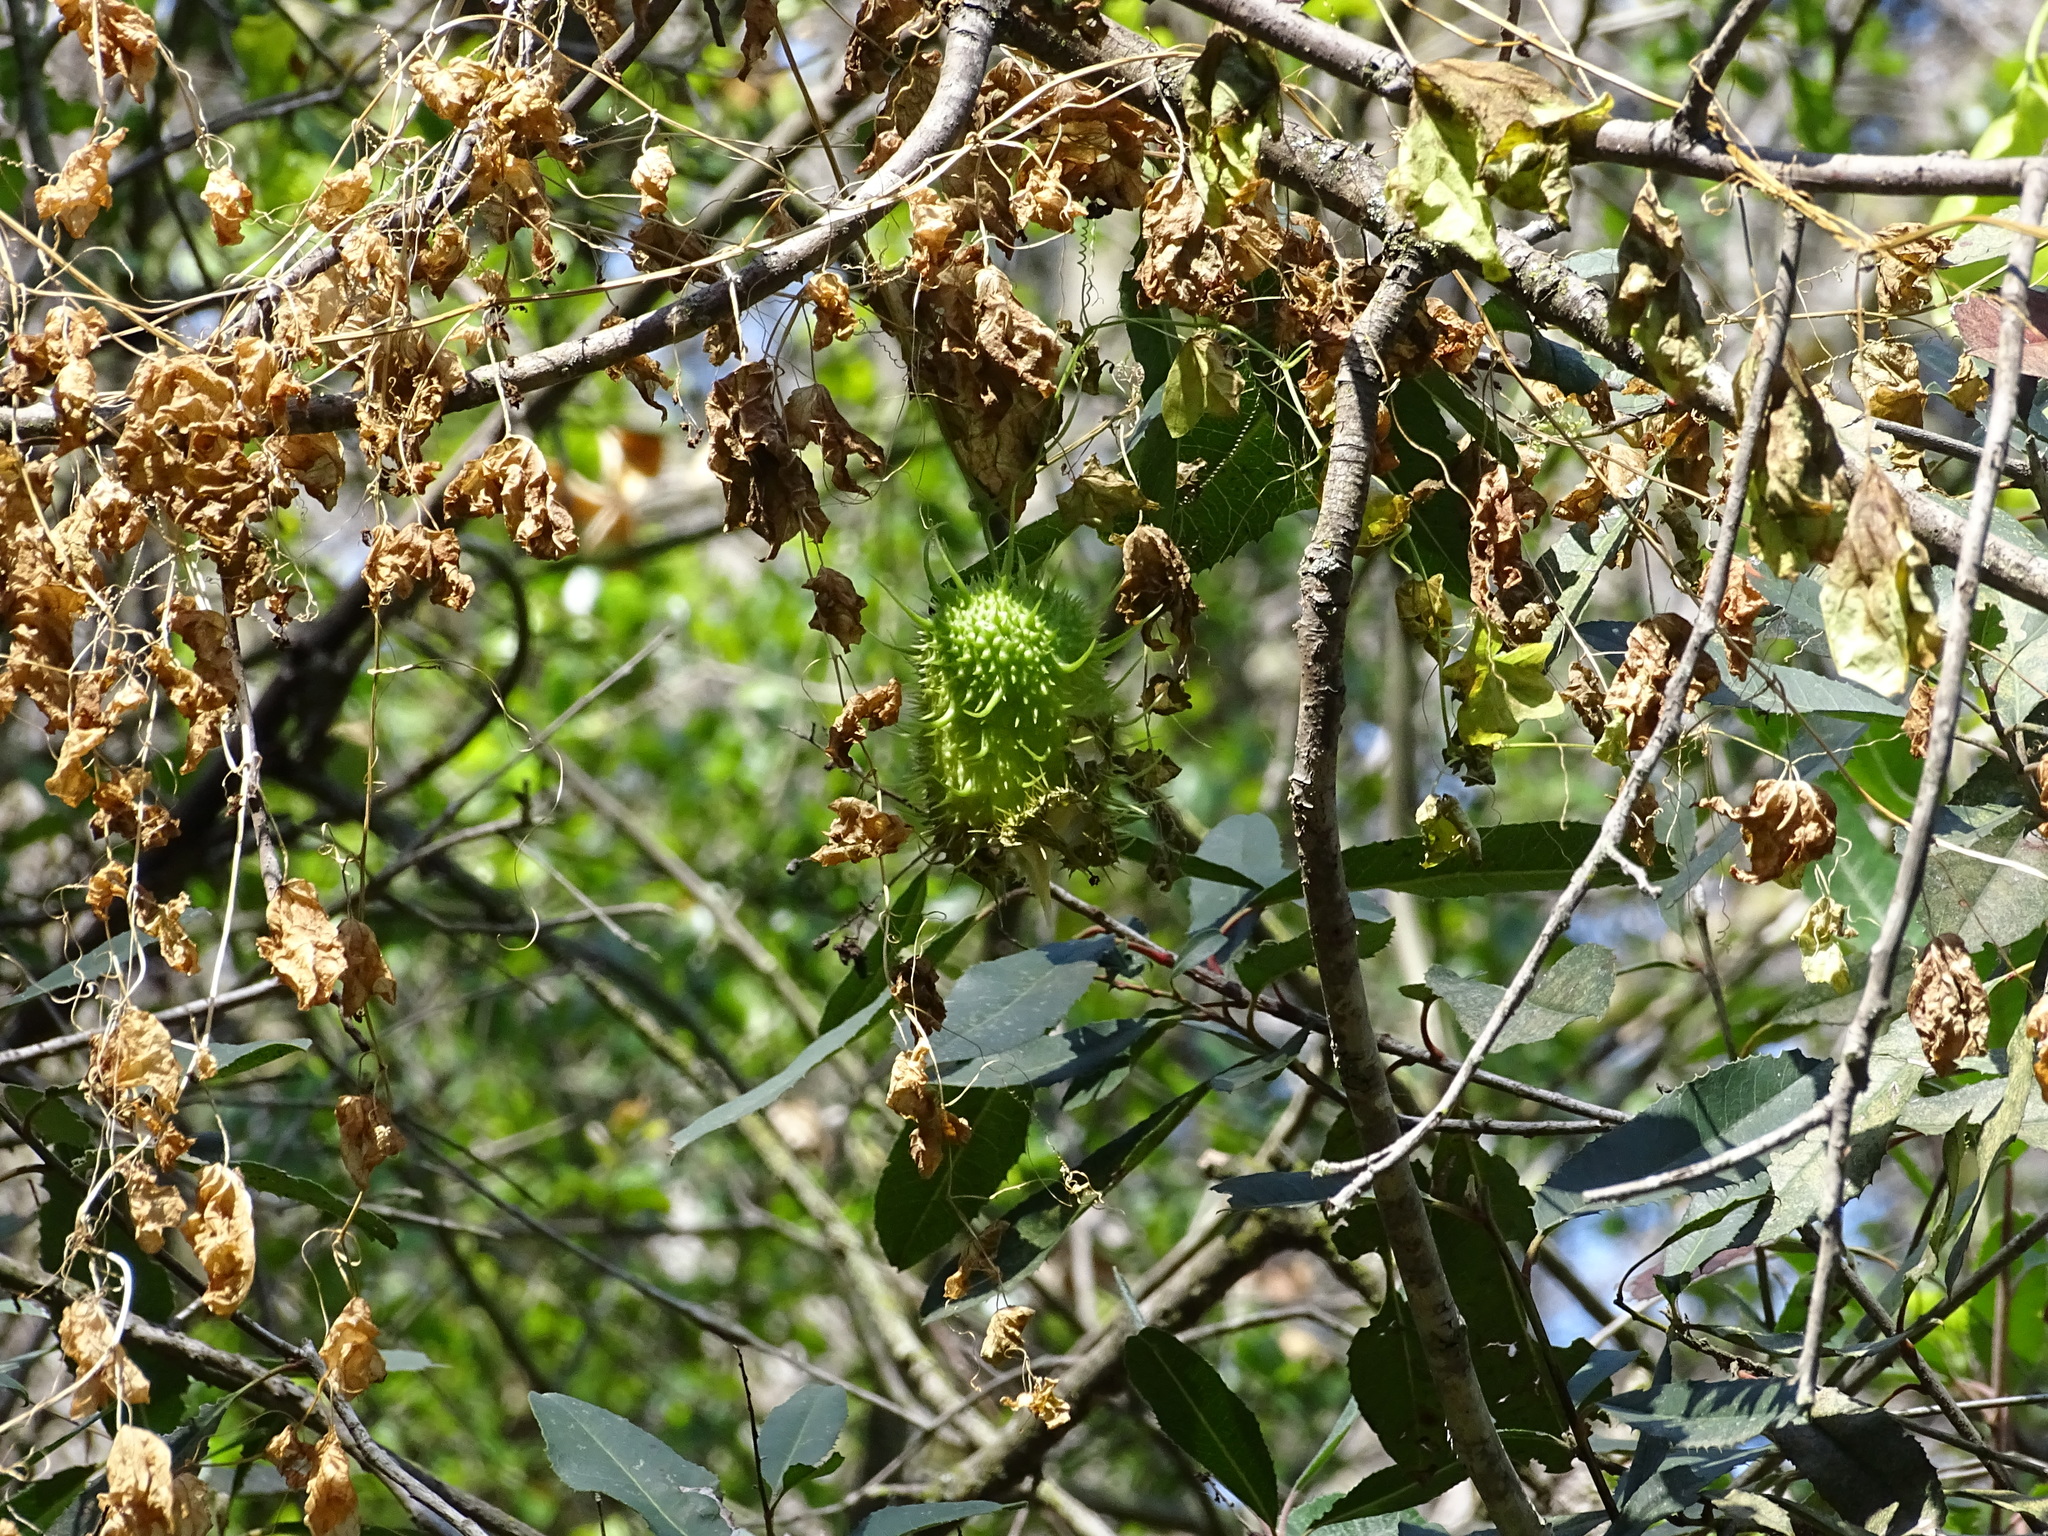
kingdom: Plantae
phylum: Tracheophyta
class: Magnoliopsida
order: Cucurbitales
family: Cucurbitaceae
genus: Marah
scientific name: Marah macrocarpa
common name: Cucamonga manroot
